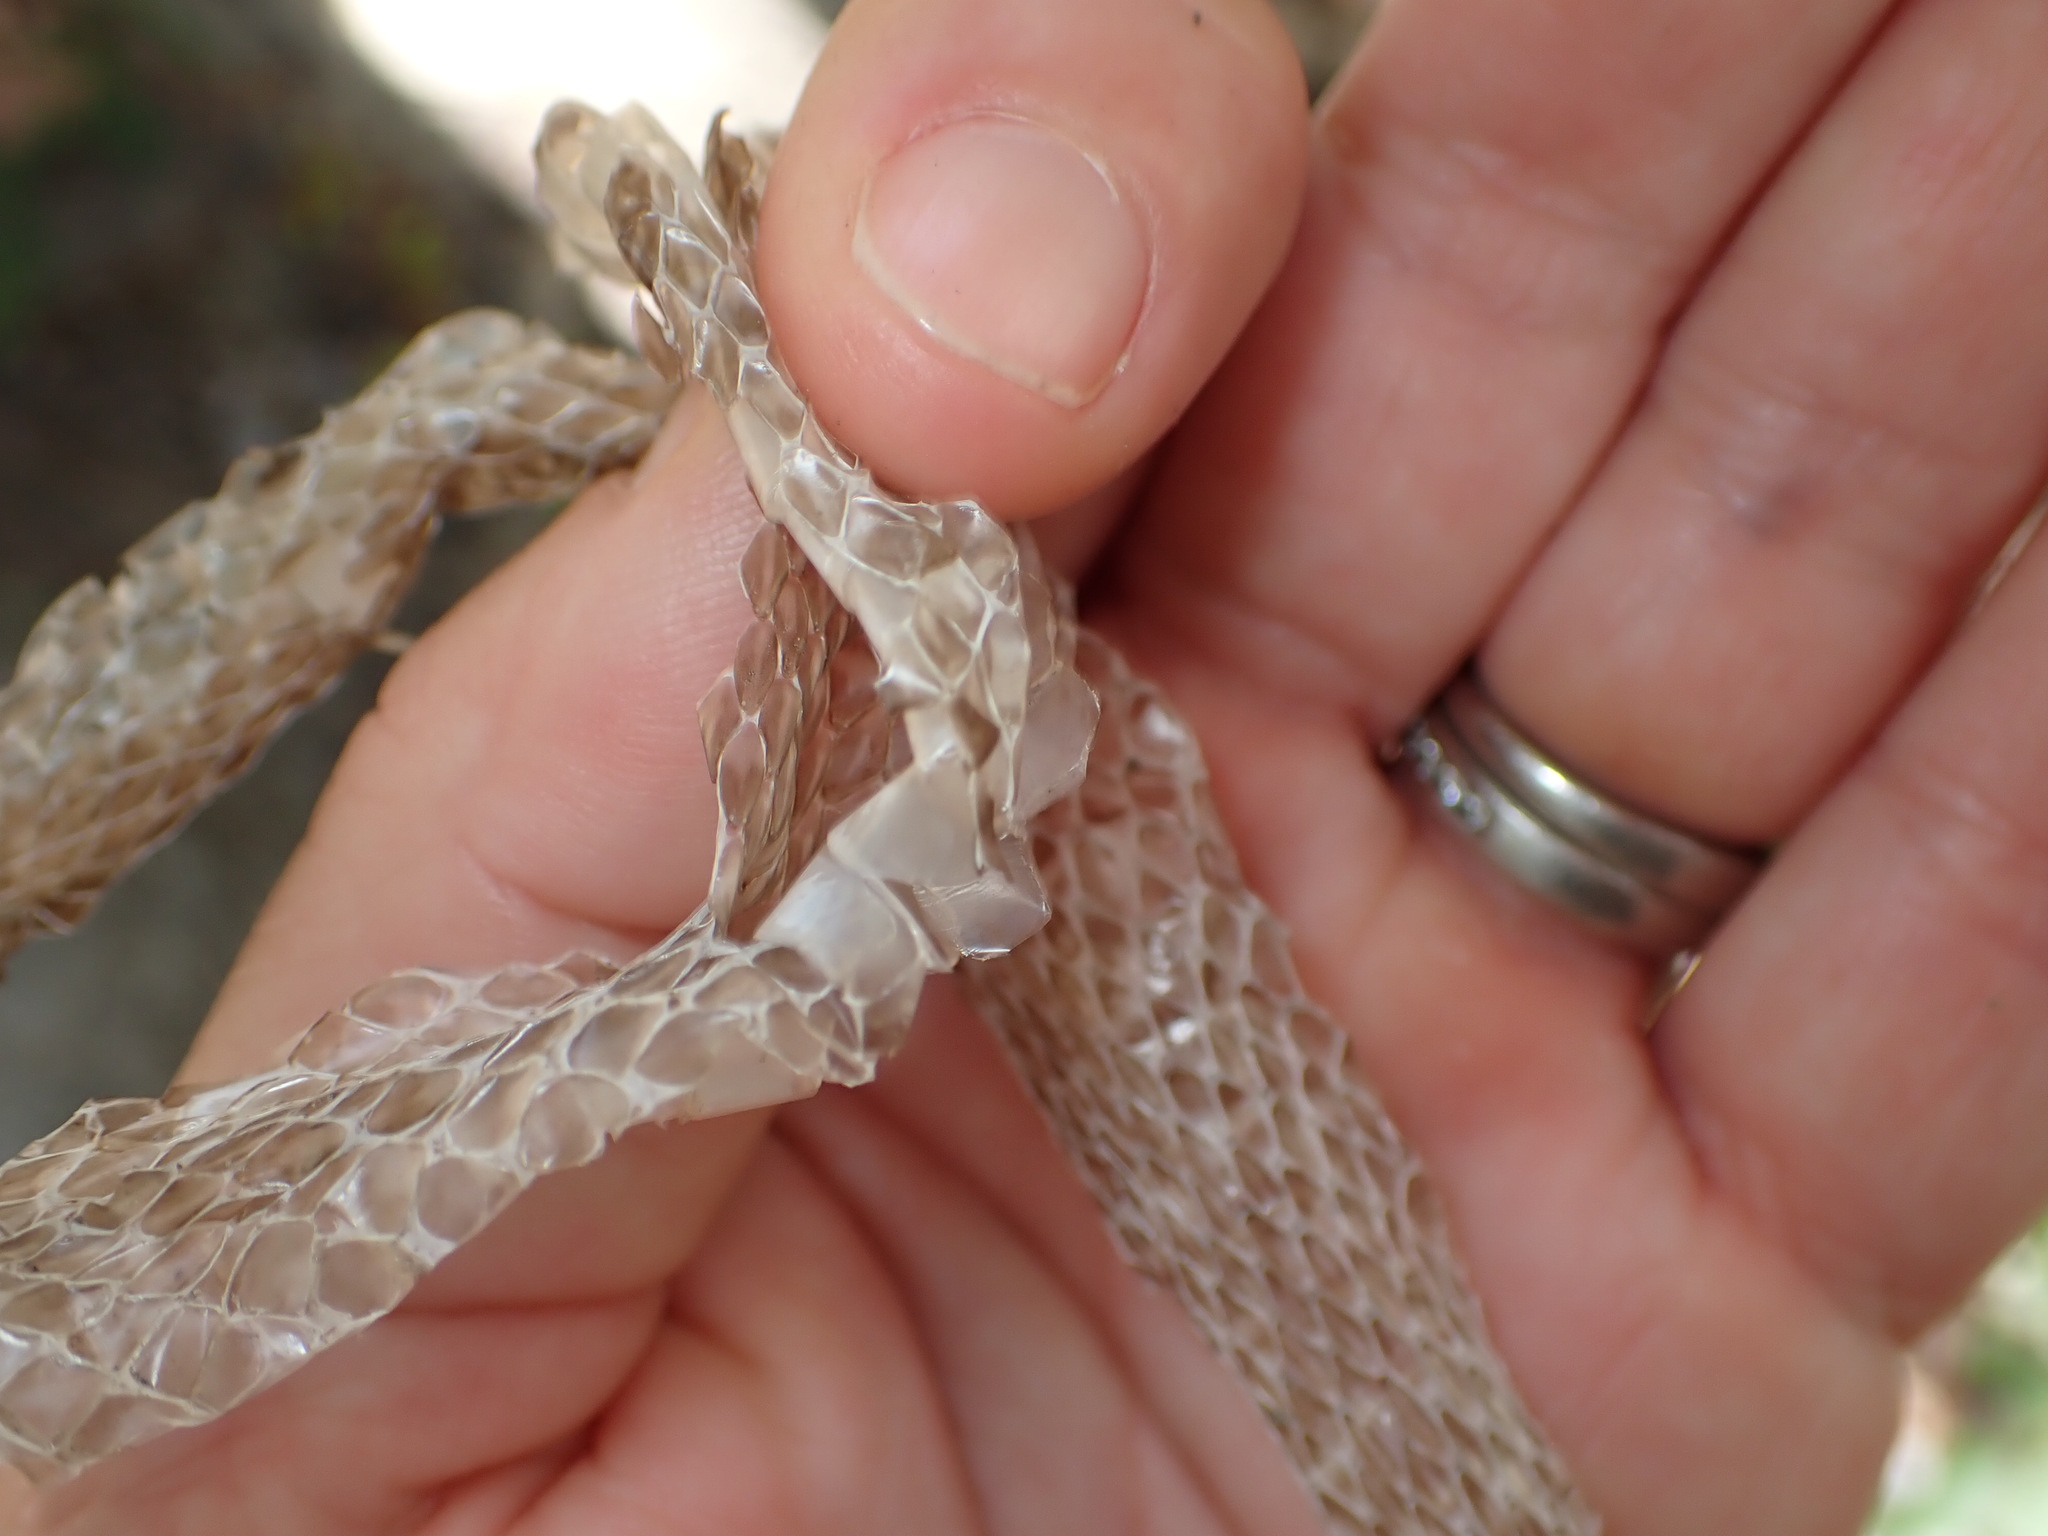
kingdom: Animalia
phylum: Chordata
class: Squamata
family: Colubridae
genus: Hierophis
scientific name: Hierophis viridiflavus
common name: Green whip snake
